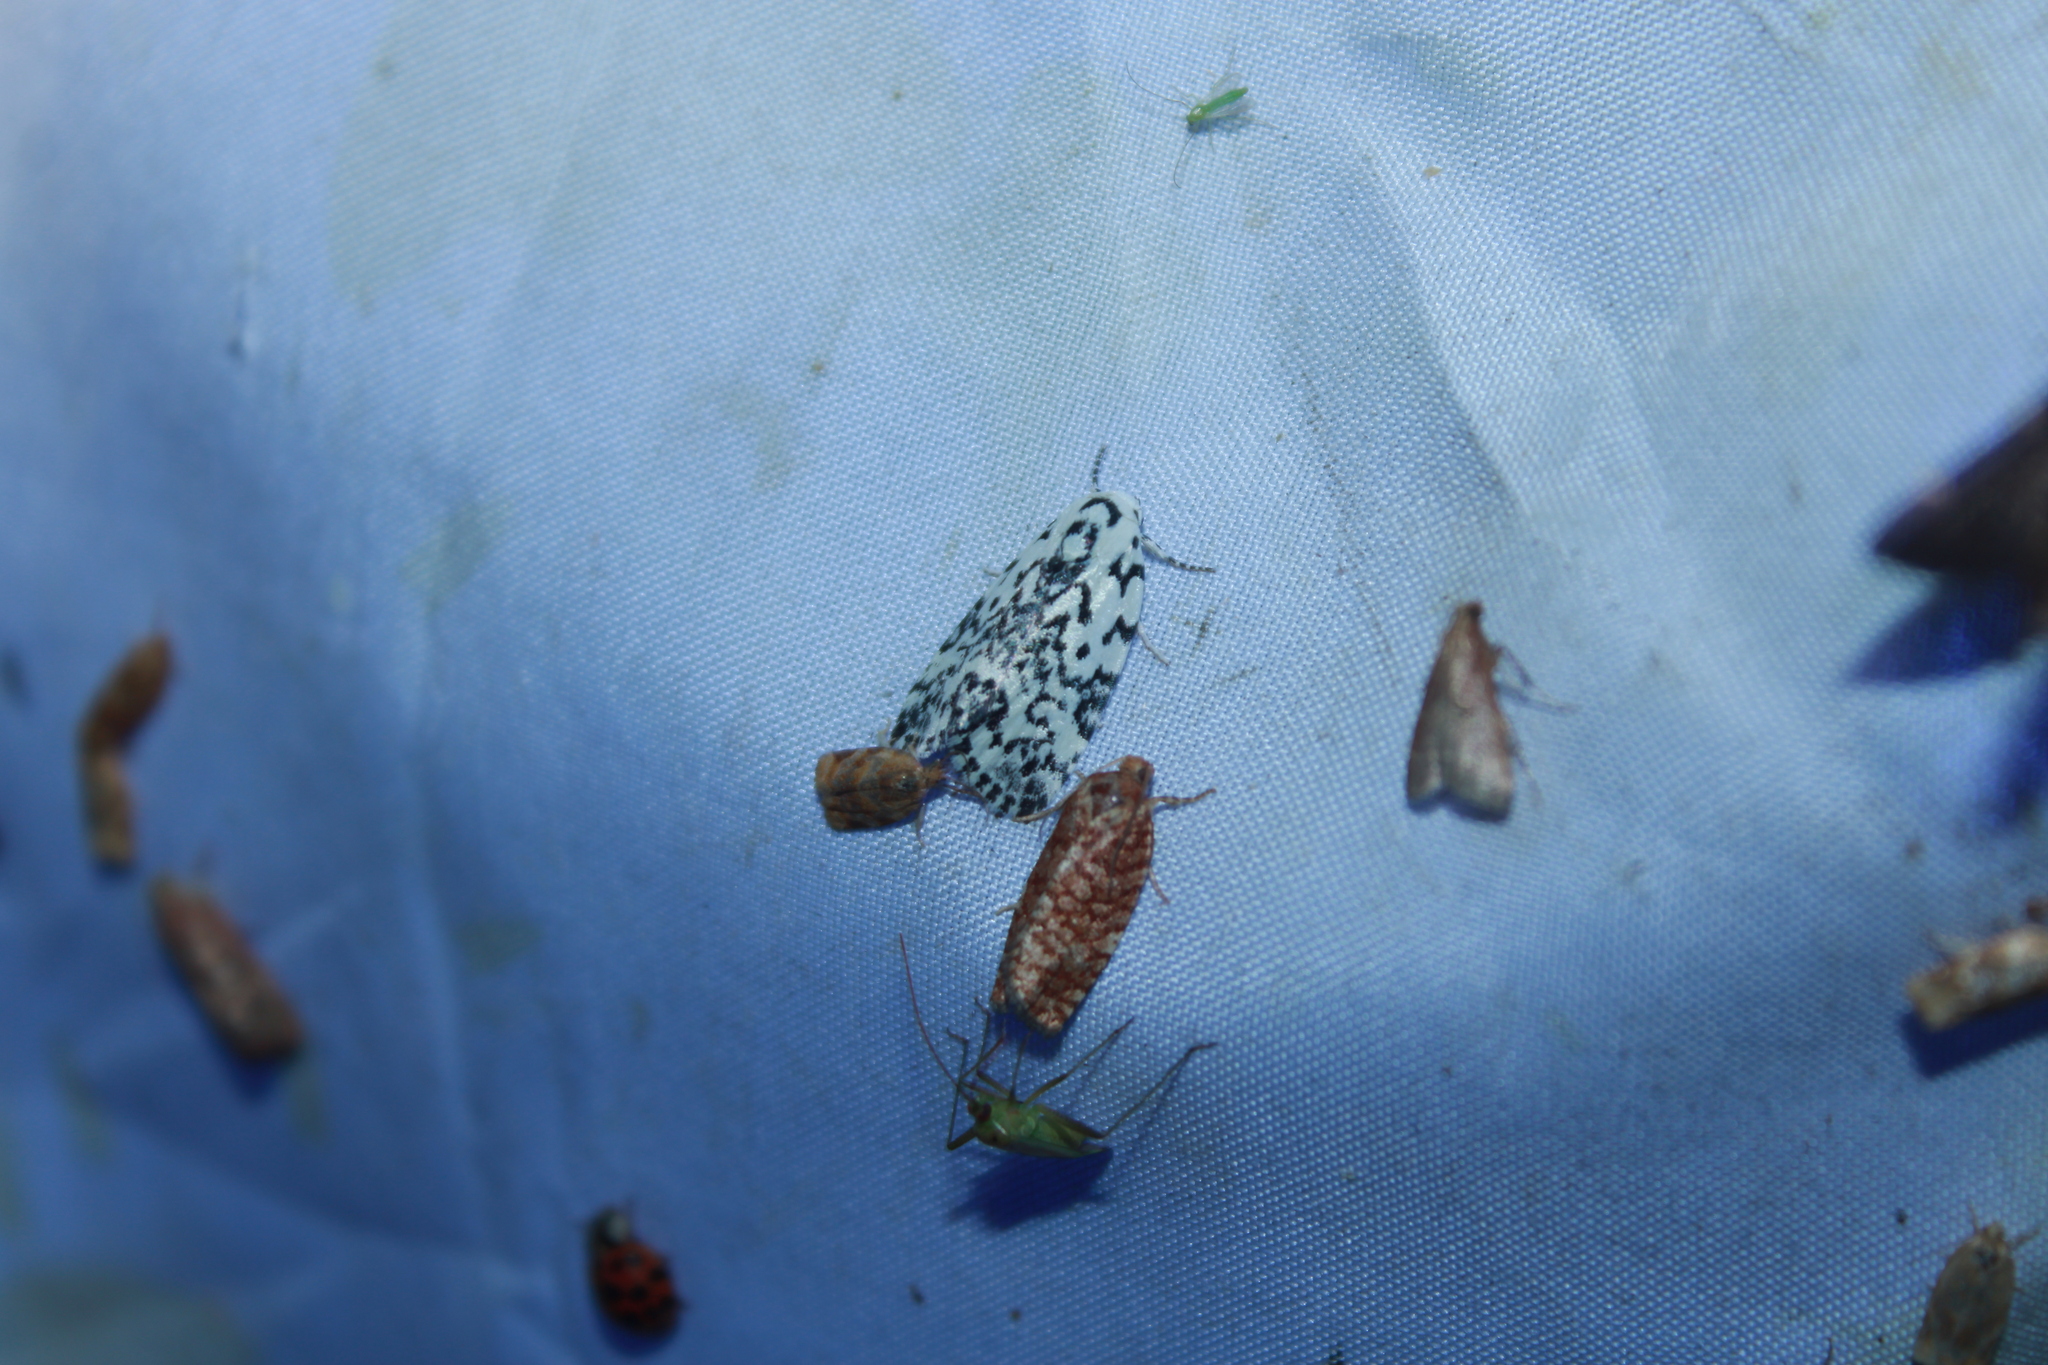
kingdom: Animalia
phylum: Arthropoda
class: Insecta
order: Lepidoptera
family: Noctuidae
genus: Polygrammate
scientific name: Polygrammate hebraeicum
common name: Hebrew moth
